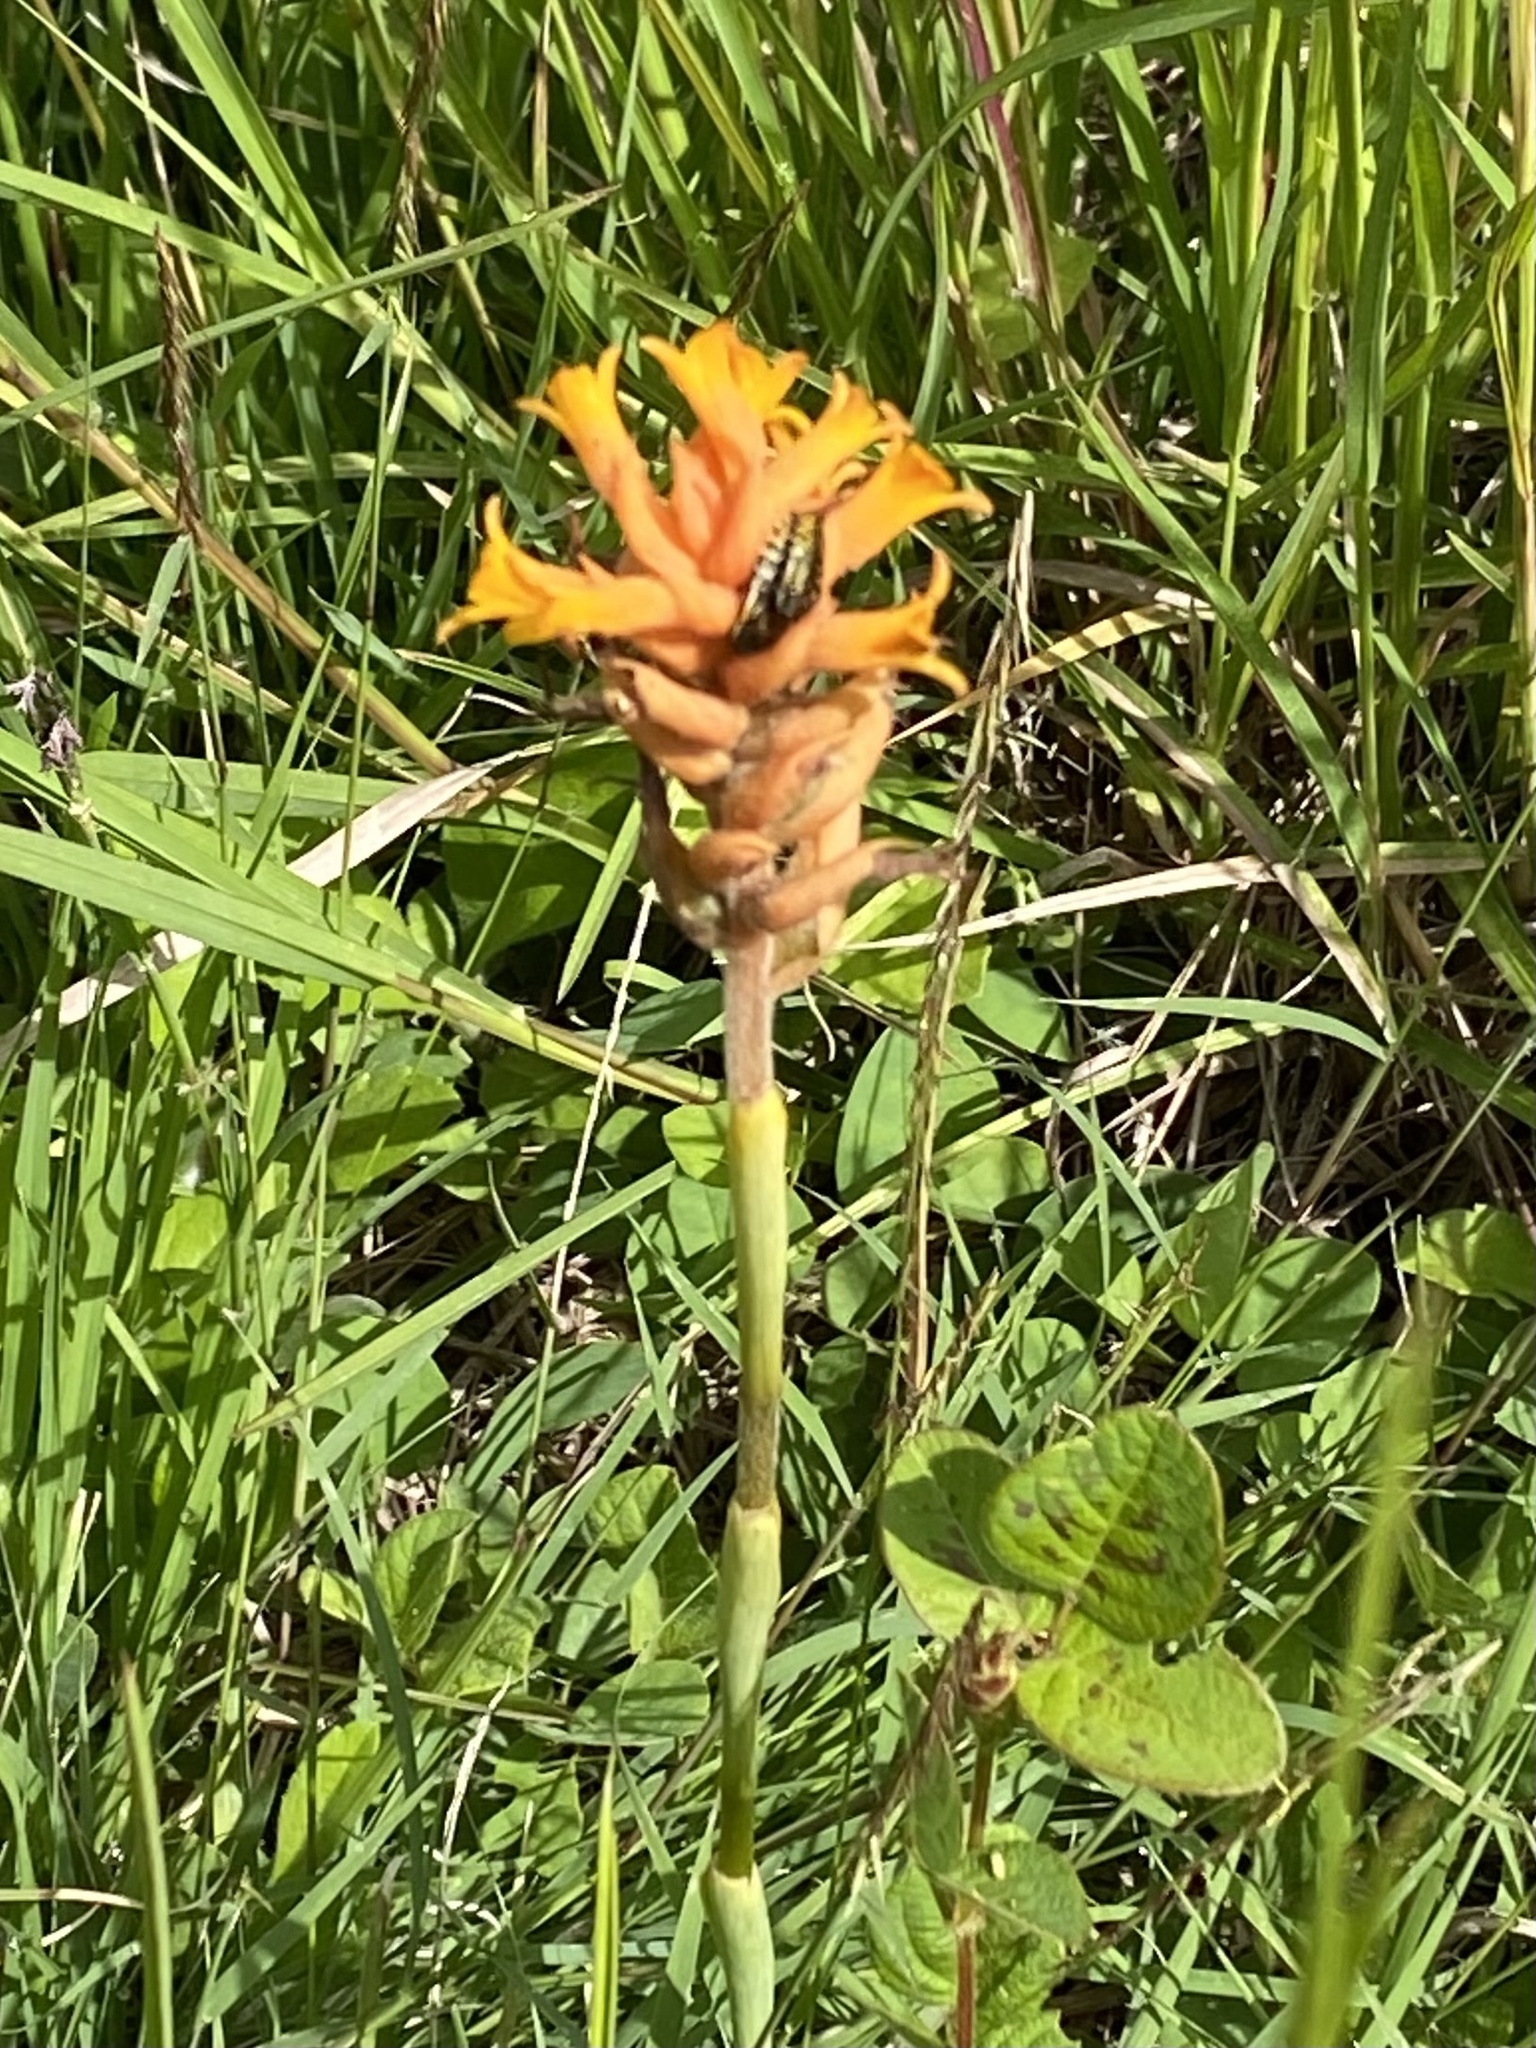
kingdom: Plantae
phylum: Tracheophyta
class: Liliopsida
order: Asparagales
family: Orchidaceae
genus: Dichromanthus
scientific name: Dichromanthus cinnabarinus
